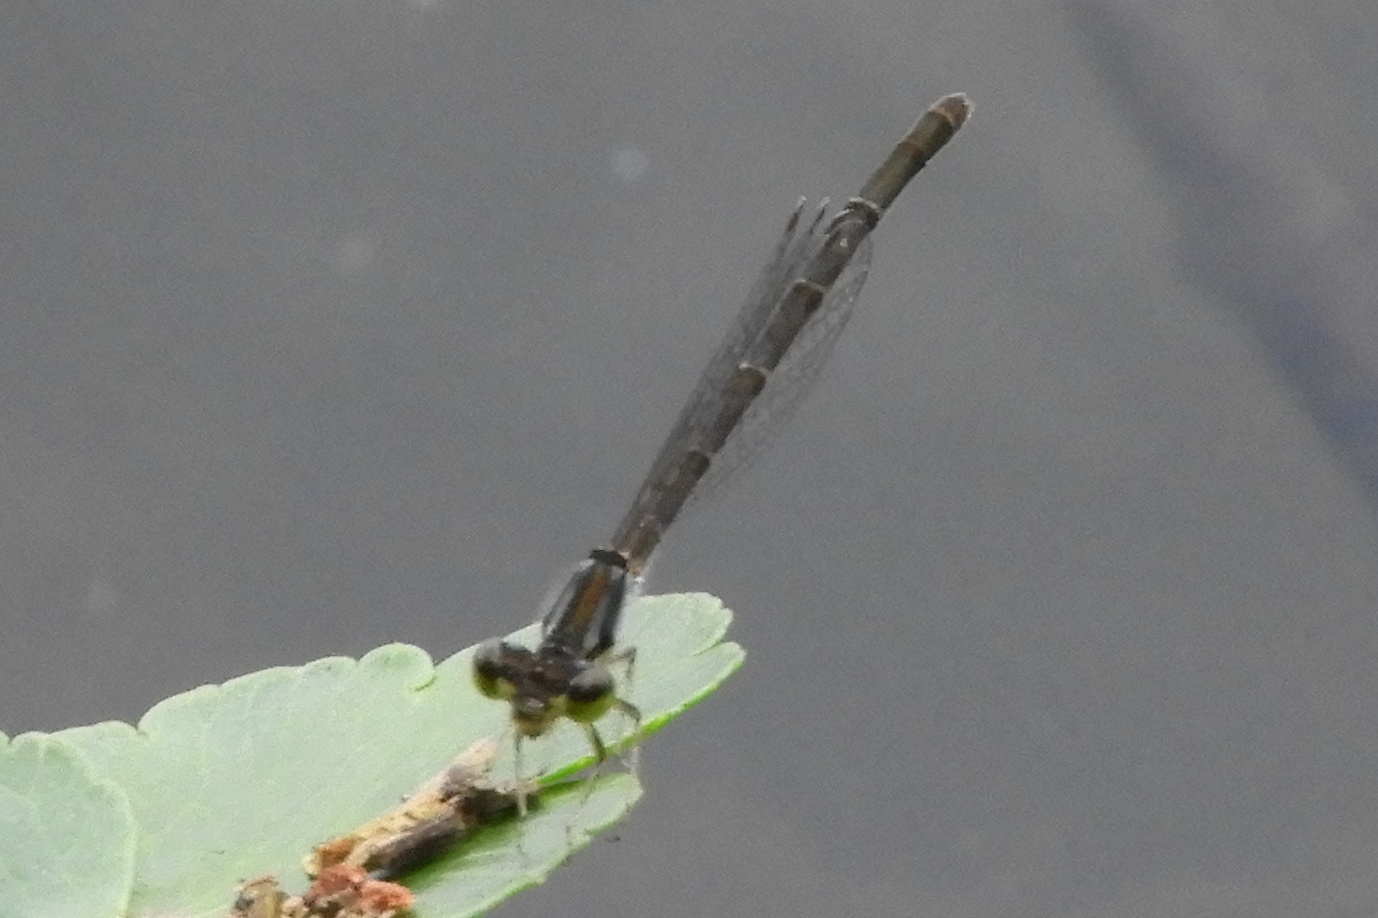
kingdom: Animalia
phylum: Arthropoda
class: Insecta
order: Odonata
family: Coenagrionidae
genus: Ischnura
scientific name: Ischnura posita
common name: Fragile forktail
